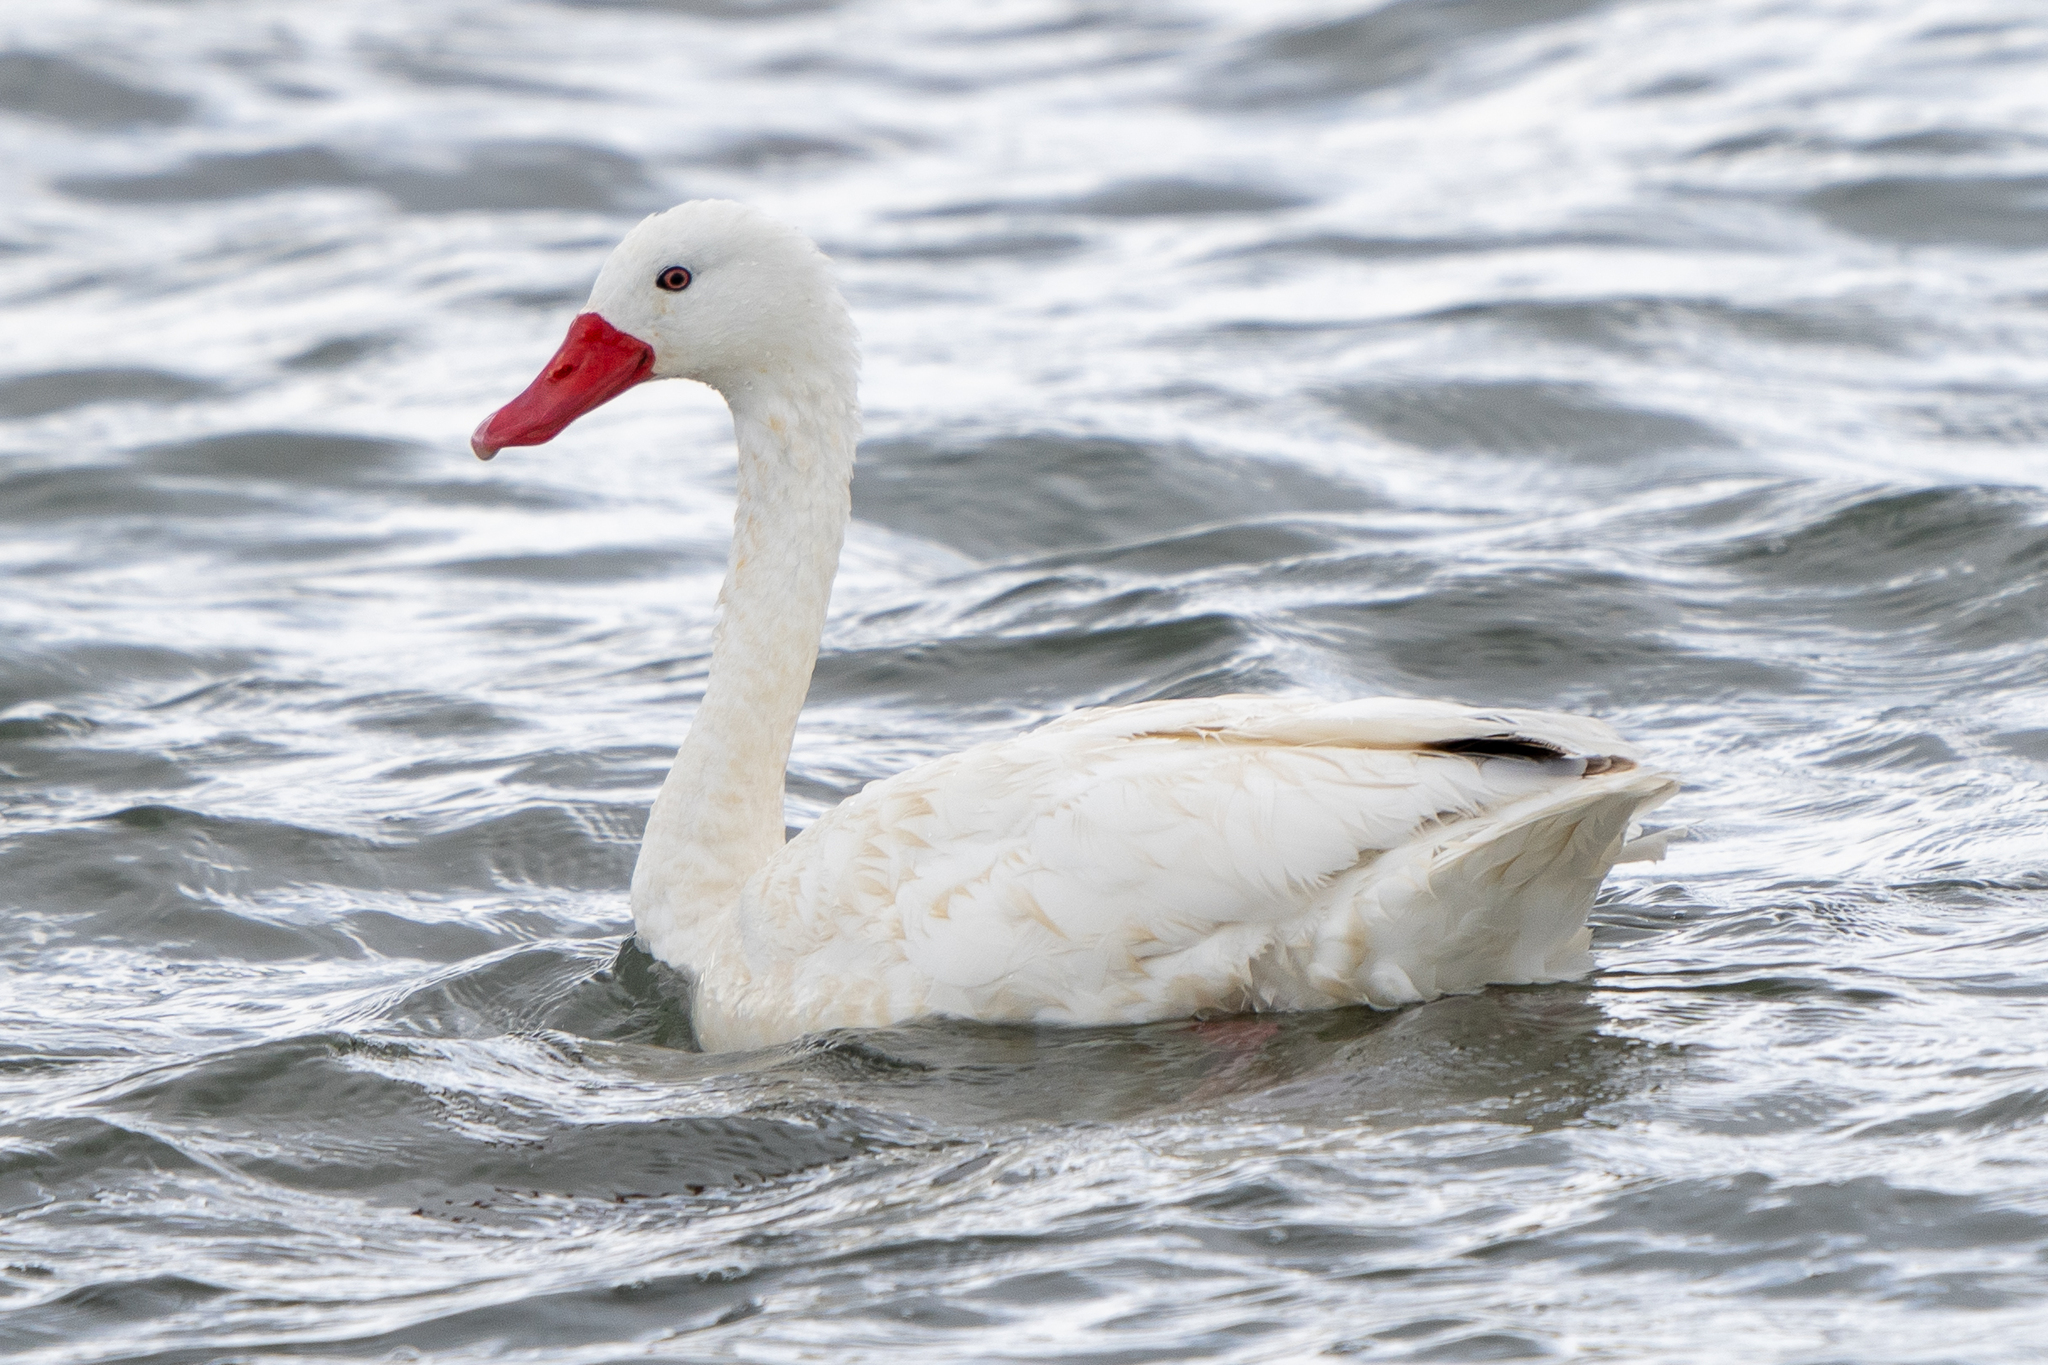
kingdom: Animalia
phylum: Chordata
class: Aves
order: Anseriformes
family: Anatidae
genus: Coscoroba
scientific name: Coscoroba coscoroba
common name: Coscoroba swan
